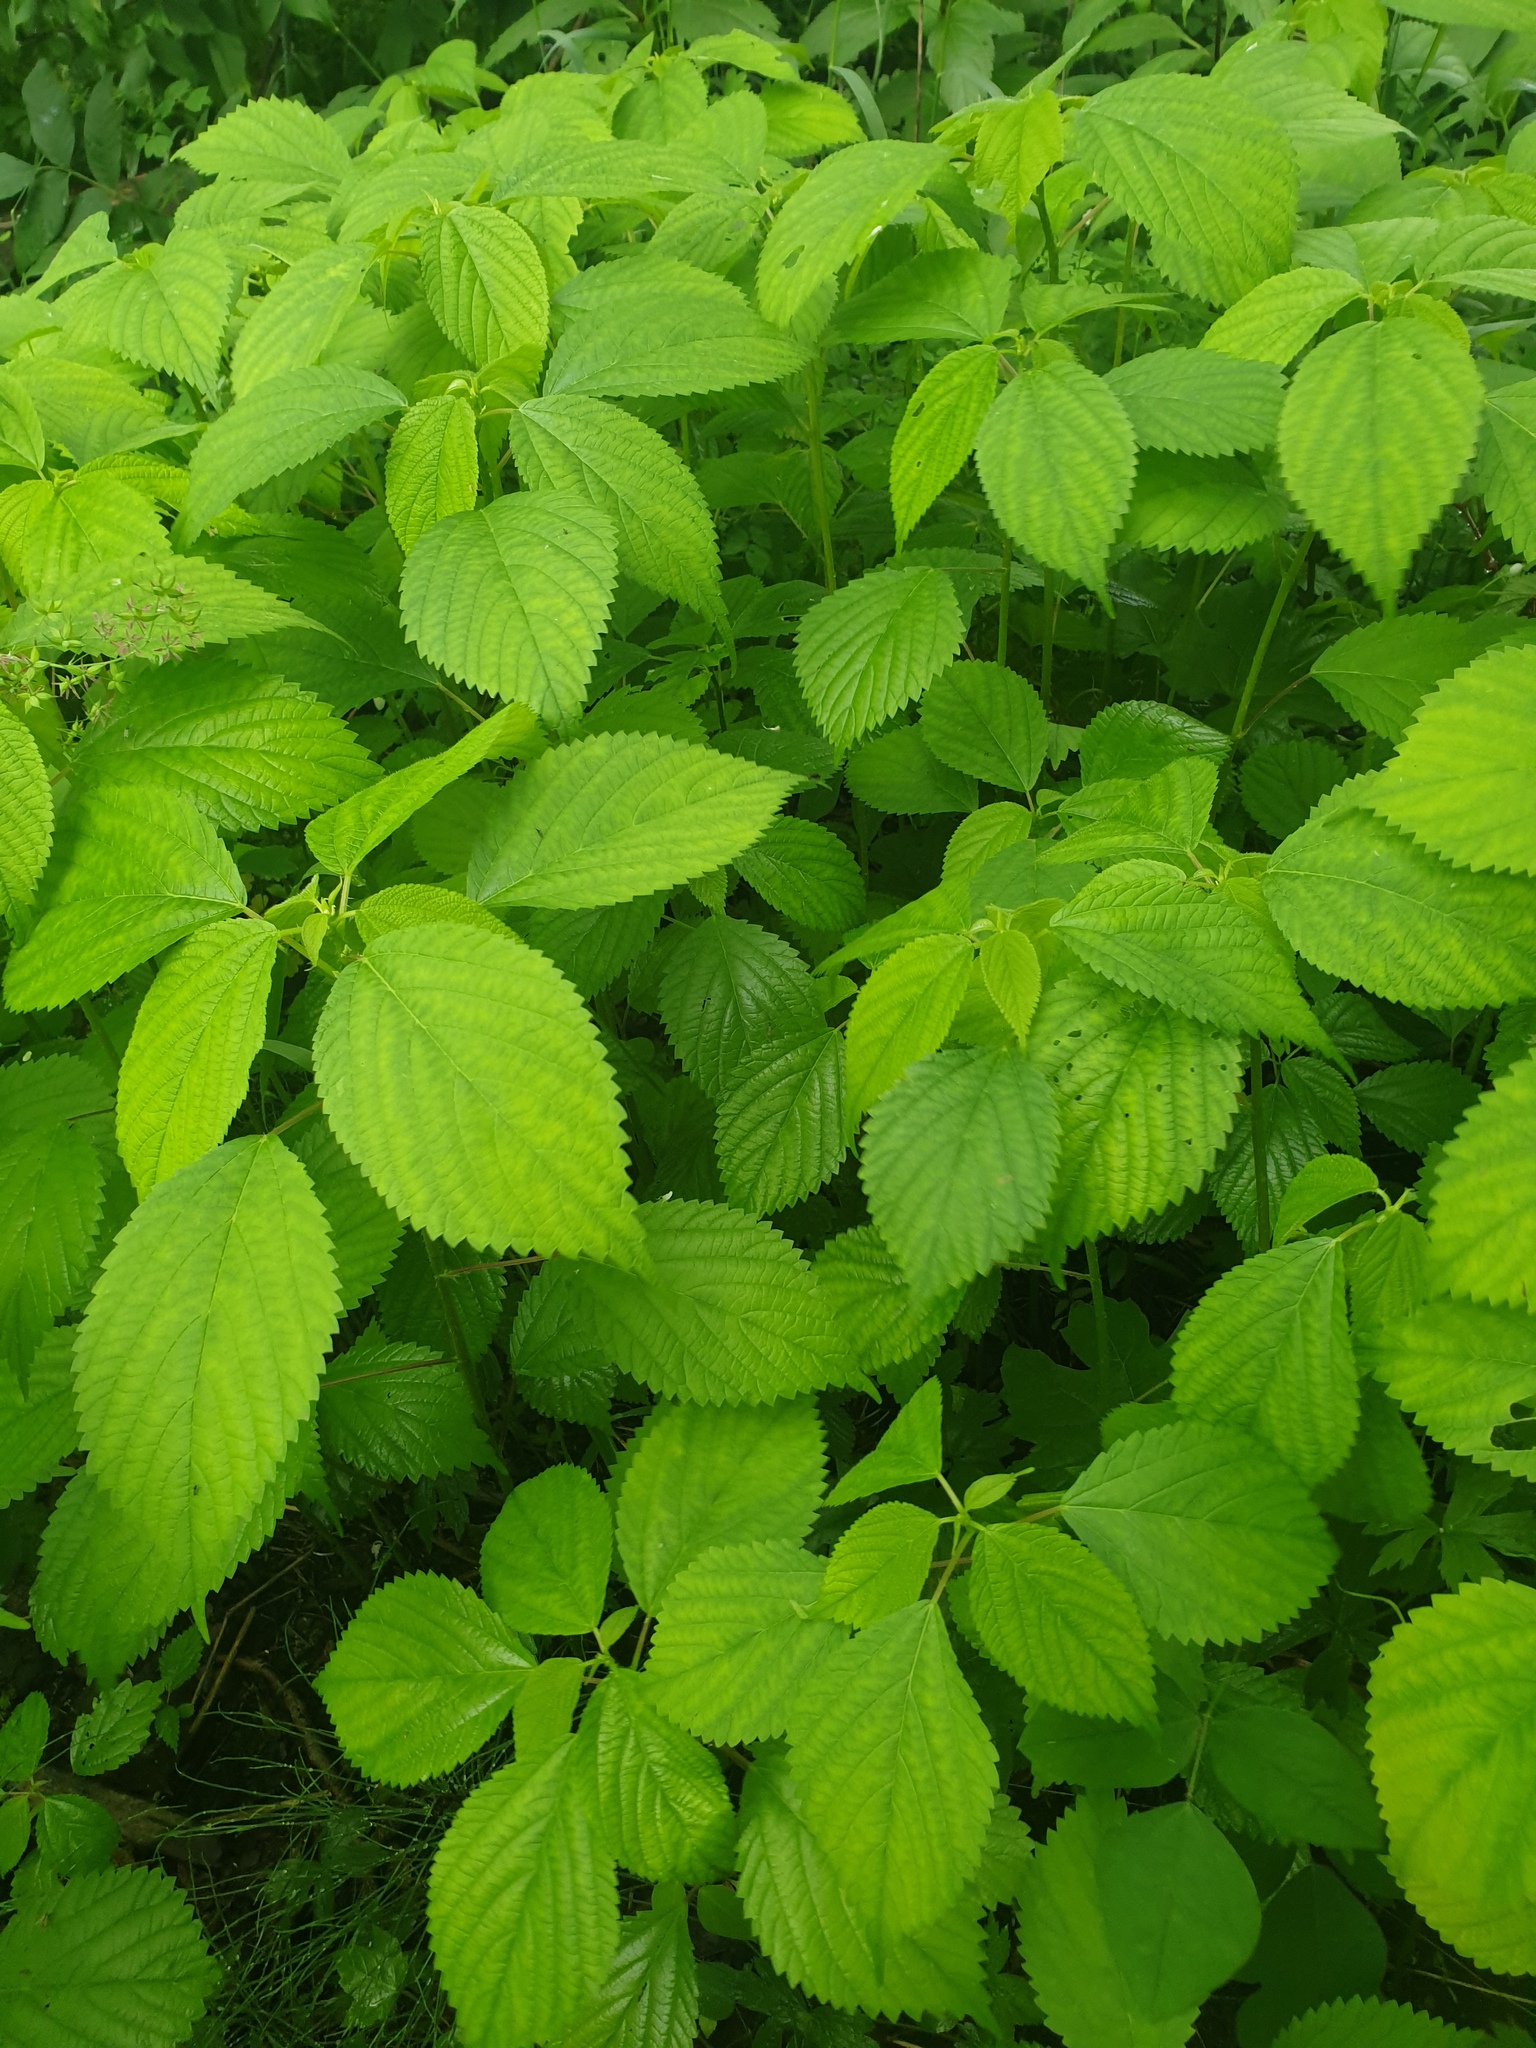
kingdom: Plantae
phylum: Tracheophyta
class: Magnoliopsida
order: Rosales
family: Urticaceae
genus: Laportea
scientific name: Laportea canadensis
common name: Canada nettle
